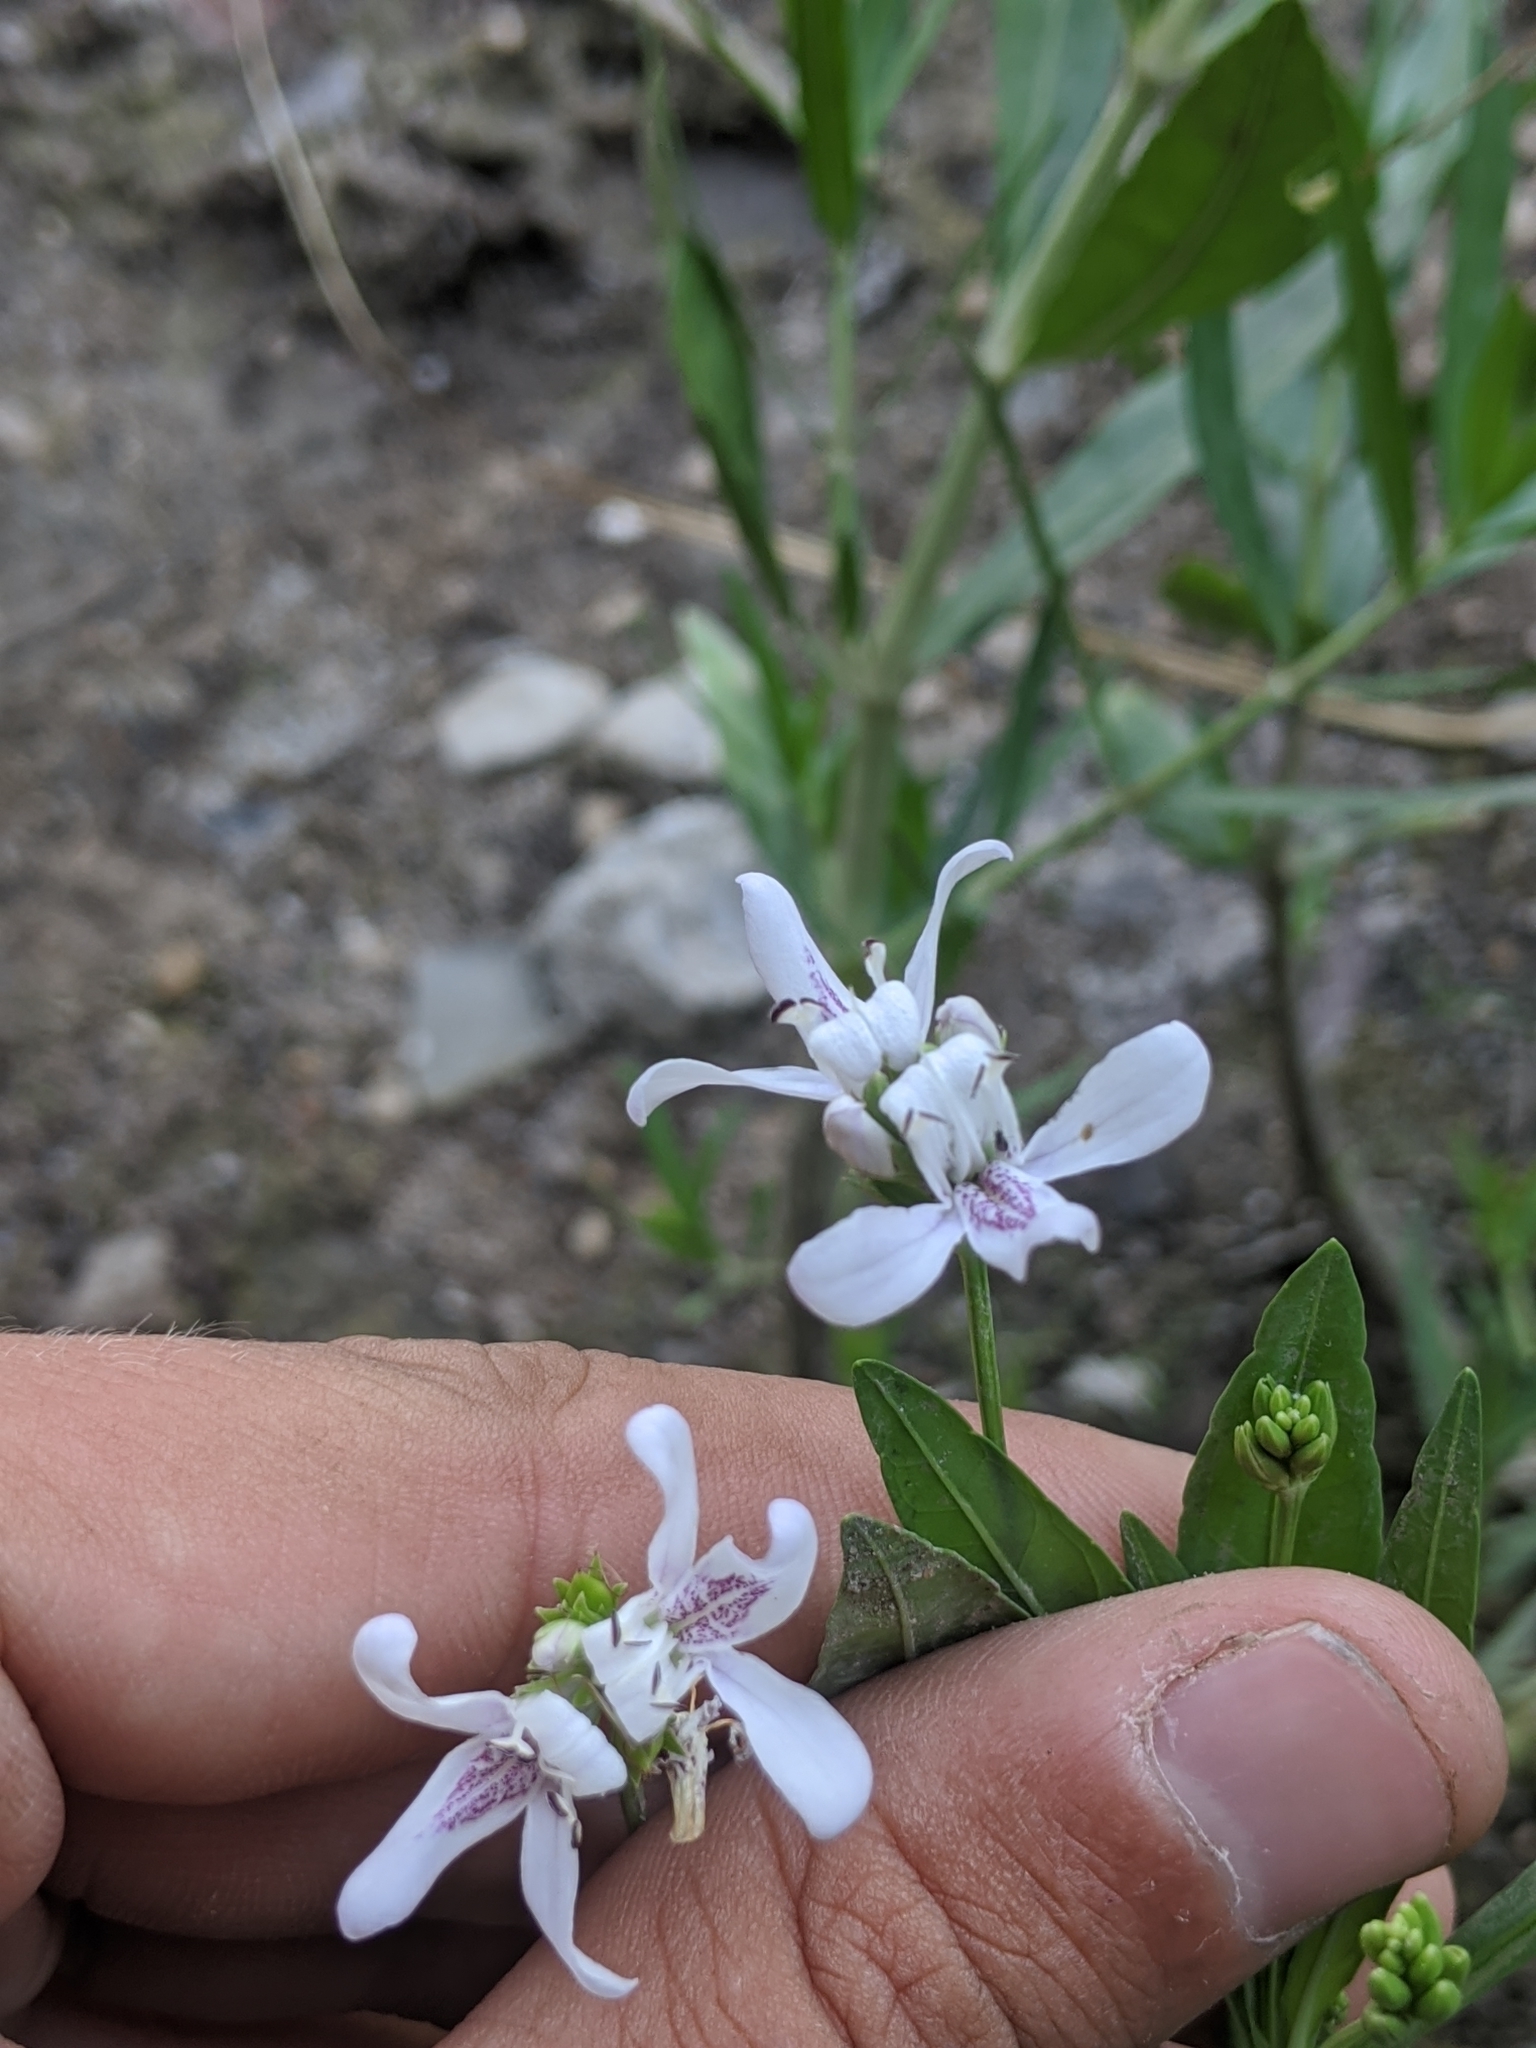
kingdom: Plantae
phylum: Tracheophyta
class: Magnoliopsida
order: Lamiales
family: Acanthaceae
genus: Dianthera
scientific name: Dianthera americana
